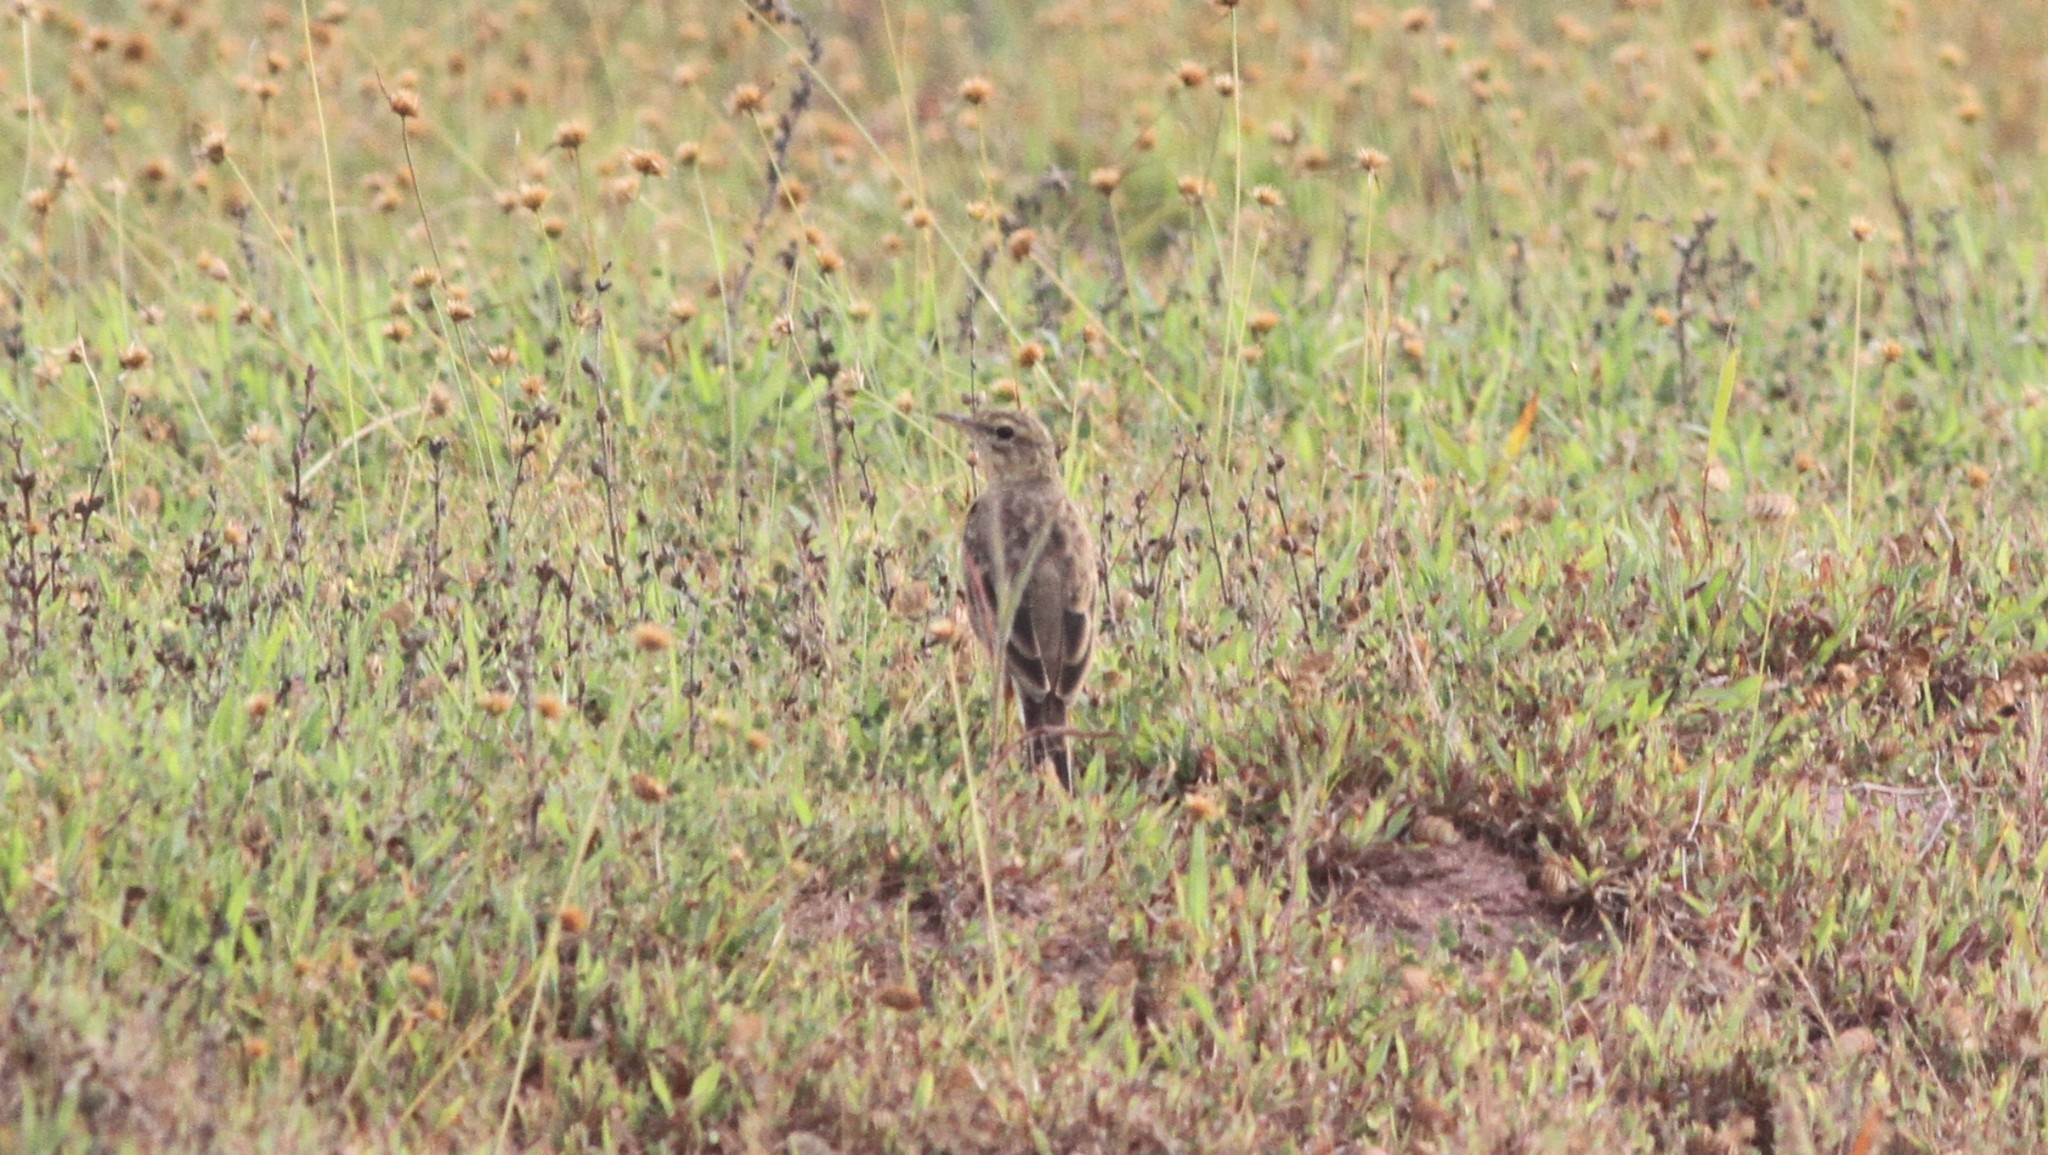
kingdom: Animalia
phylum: Chordata
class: Aves
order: Passeriformes
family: Motacillidae
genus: Anthus
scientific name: Anthus rufulus
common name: Paddyfield pipit
